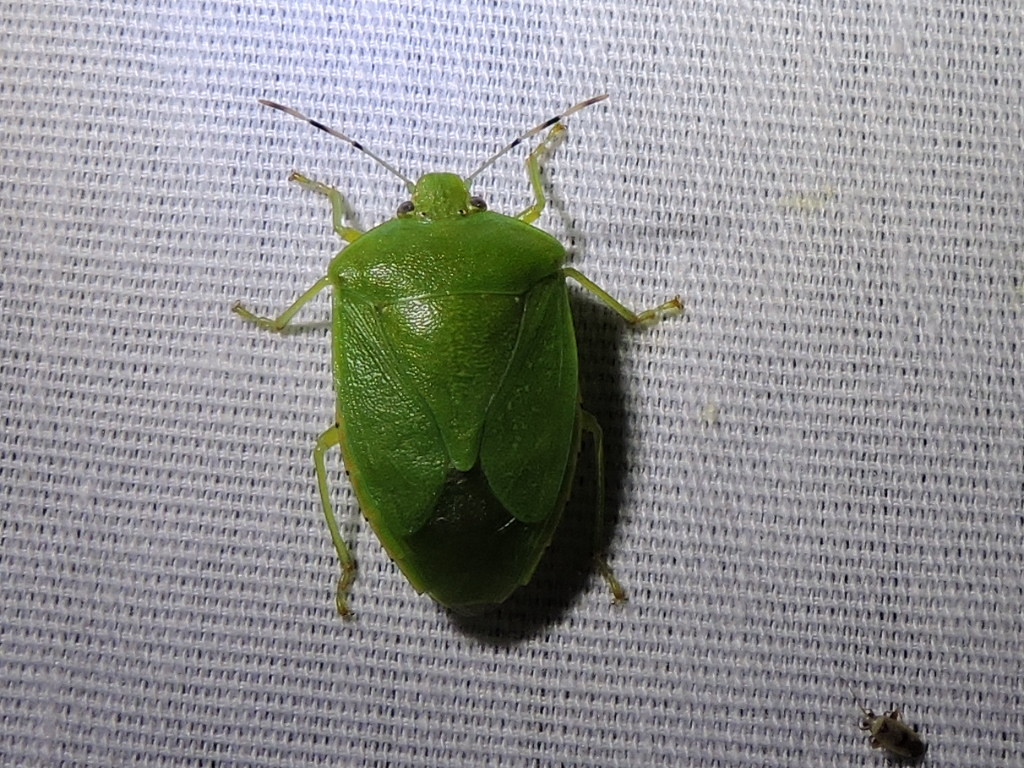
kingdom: Animalia
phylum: Arthropoda
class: Insecta
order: Hemiptera
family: Pentatomidae
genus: Chinavia
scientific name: Chinavia hilaris
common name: Green stink bug
